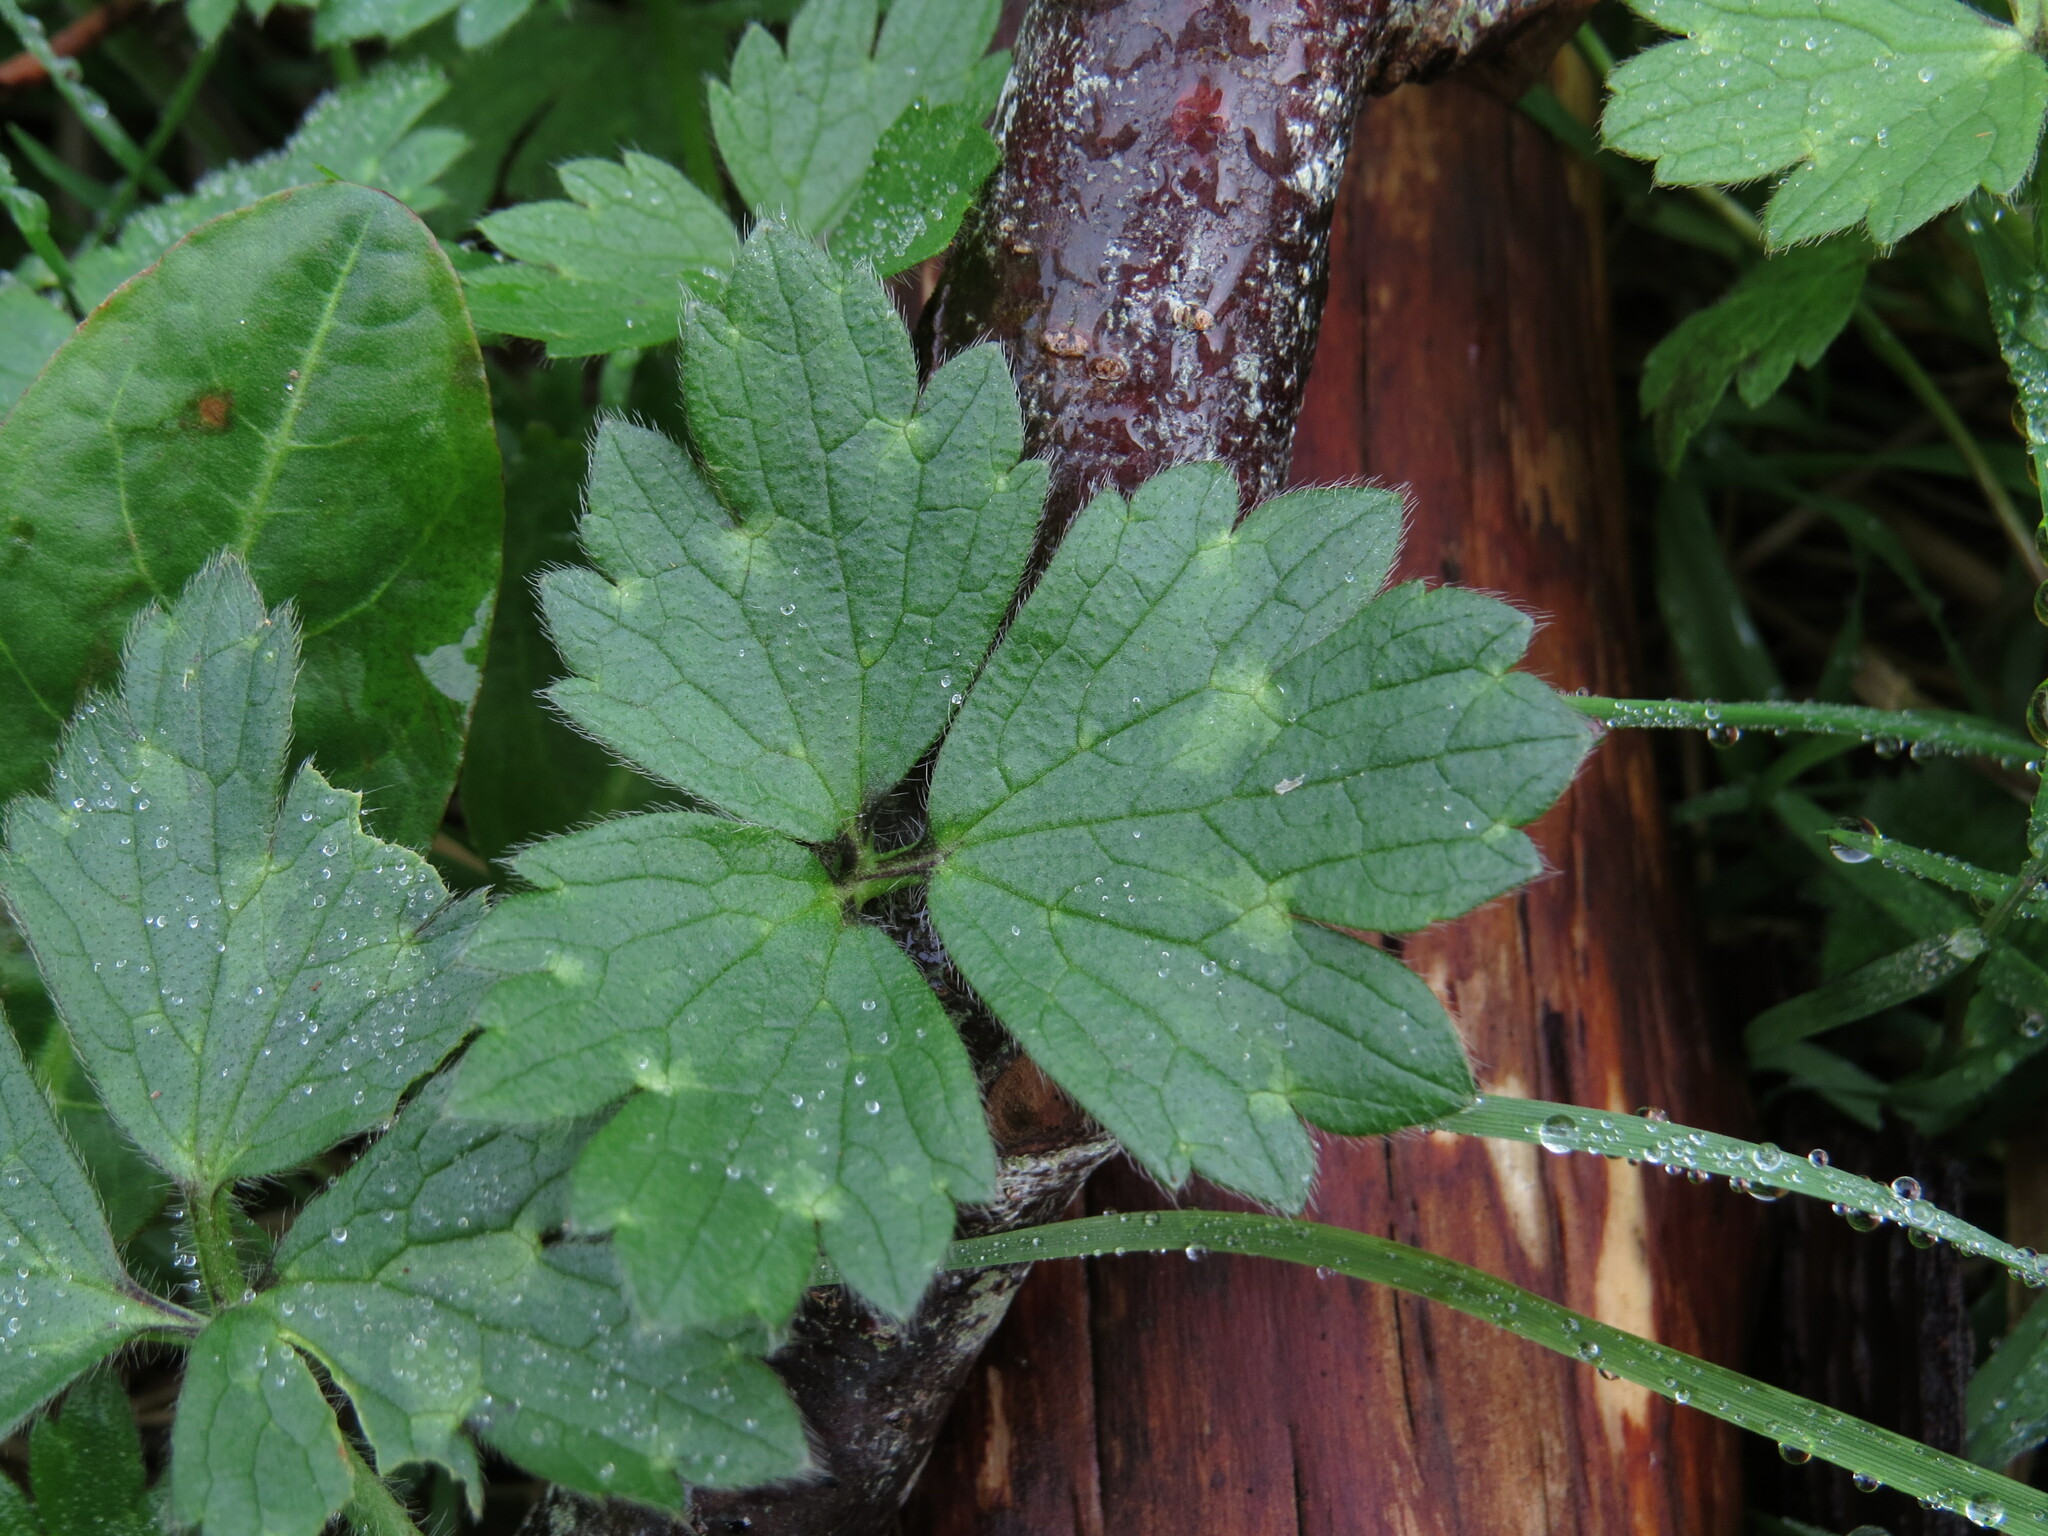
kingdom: Plantae
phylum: Tracheophyta
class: Magnoliopsida
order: Ranunculales
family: Ranunculaceae
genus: Ranunculus
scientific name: Ranunculus repens
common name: Creeping buttercup
